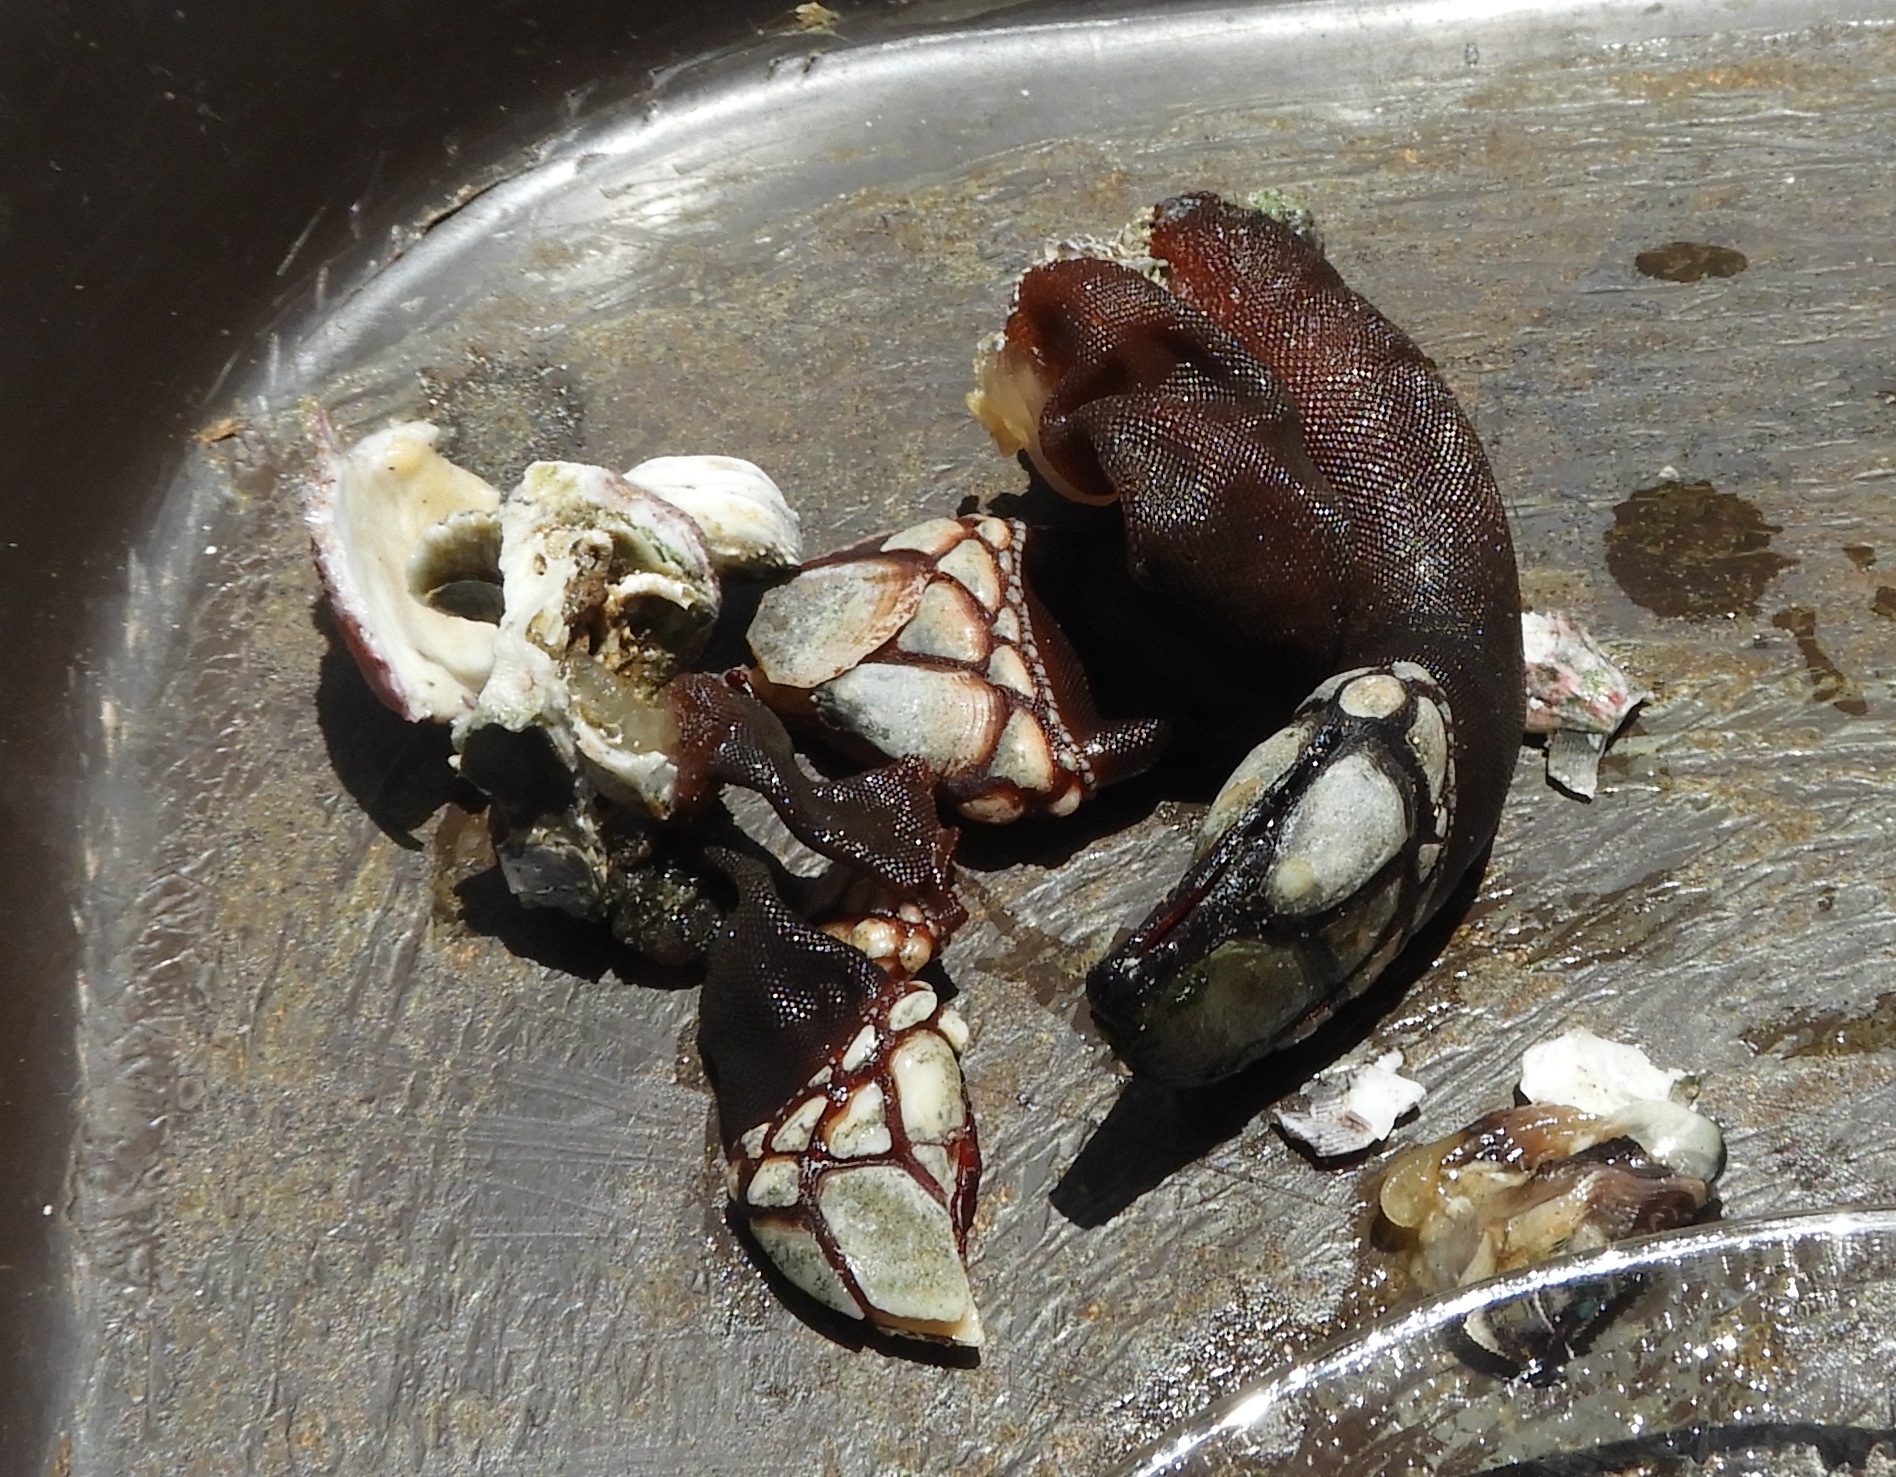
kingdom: Animalia
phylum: Arthropoda
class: Maxillopoda
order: Pedunculata
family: Pollicipedidae
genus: Pollicipes
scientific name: Pollicipes elegans
